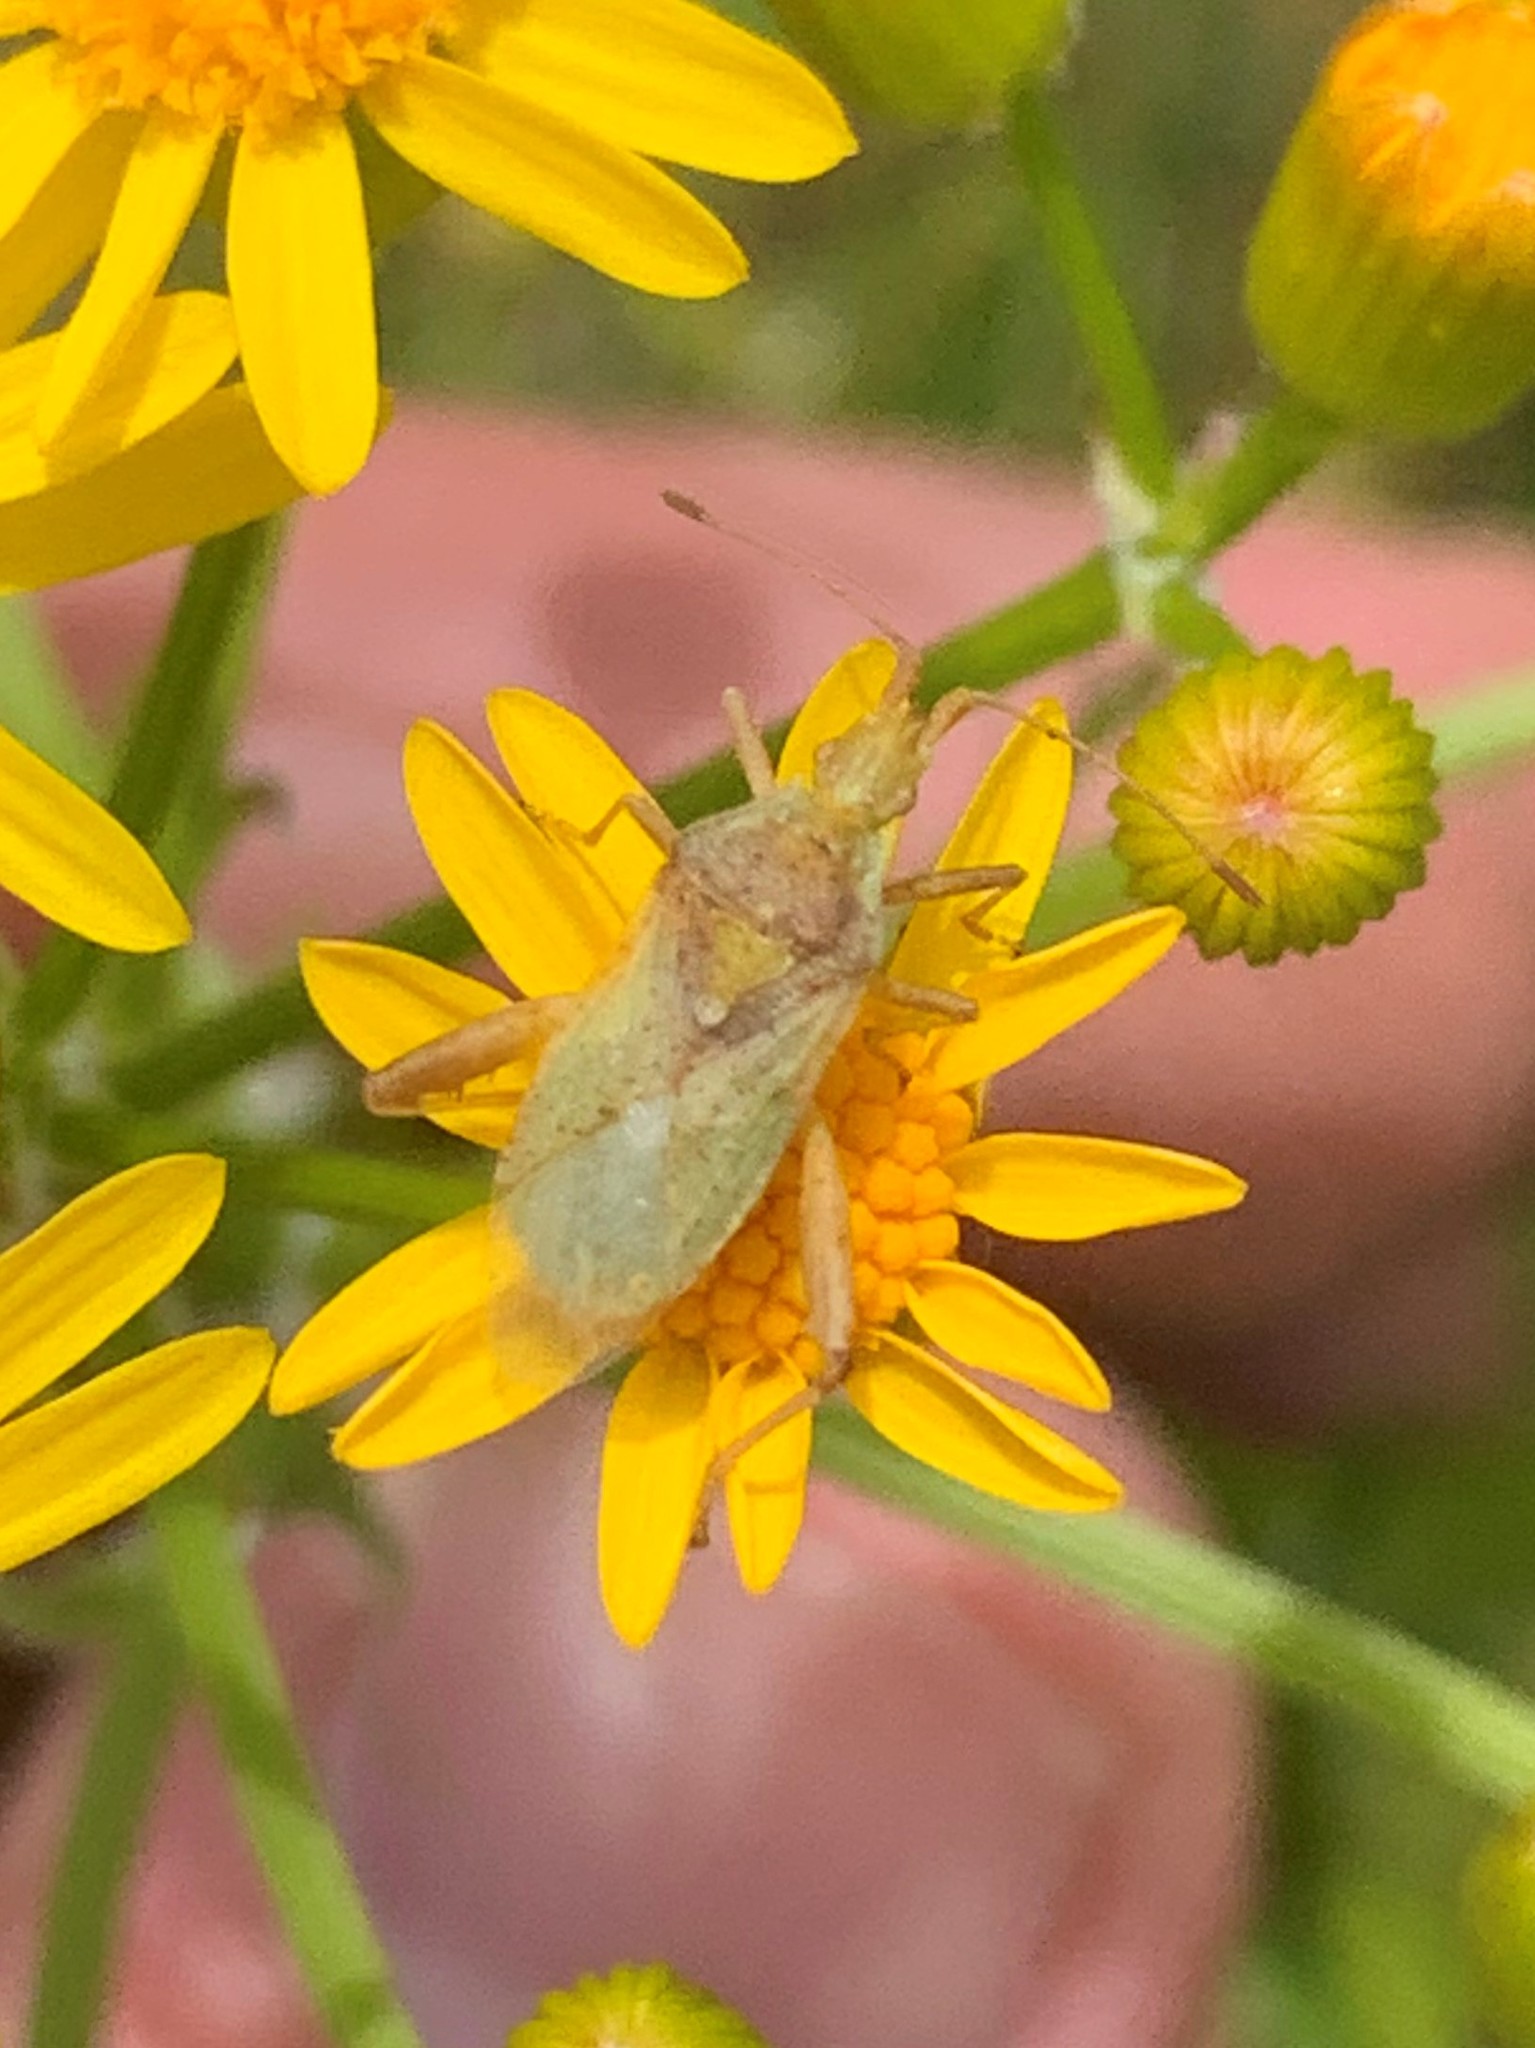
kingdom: Animalia
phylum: Arthropoda
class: Insecta
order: Hemiptera
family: Rhopalidae
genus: Harmostes
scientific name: Harmostes reflexulus
